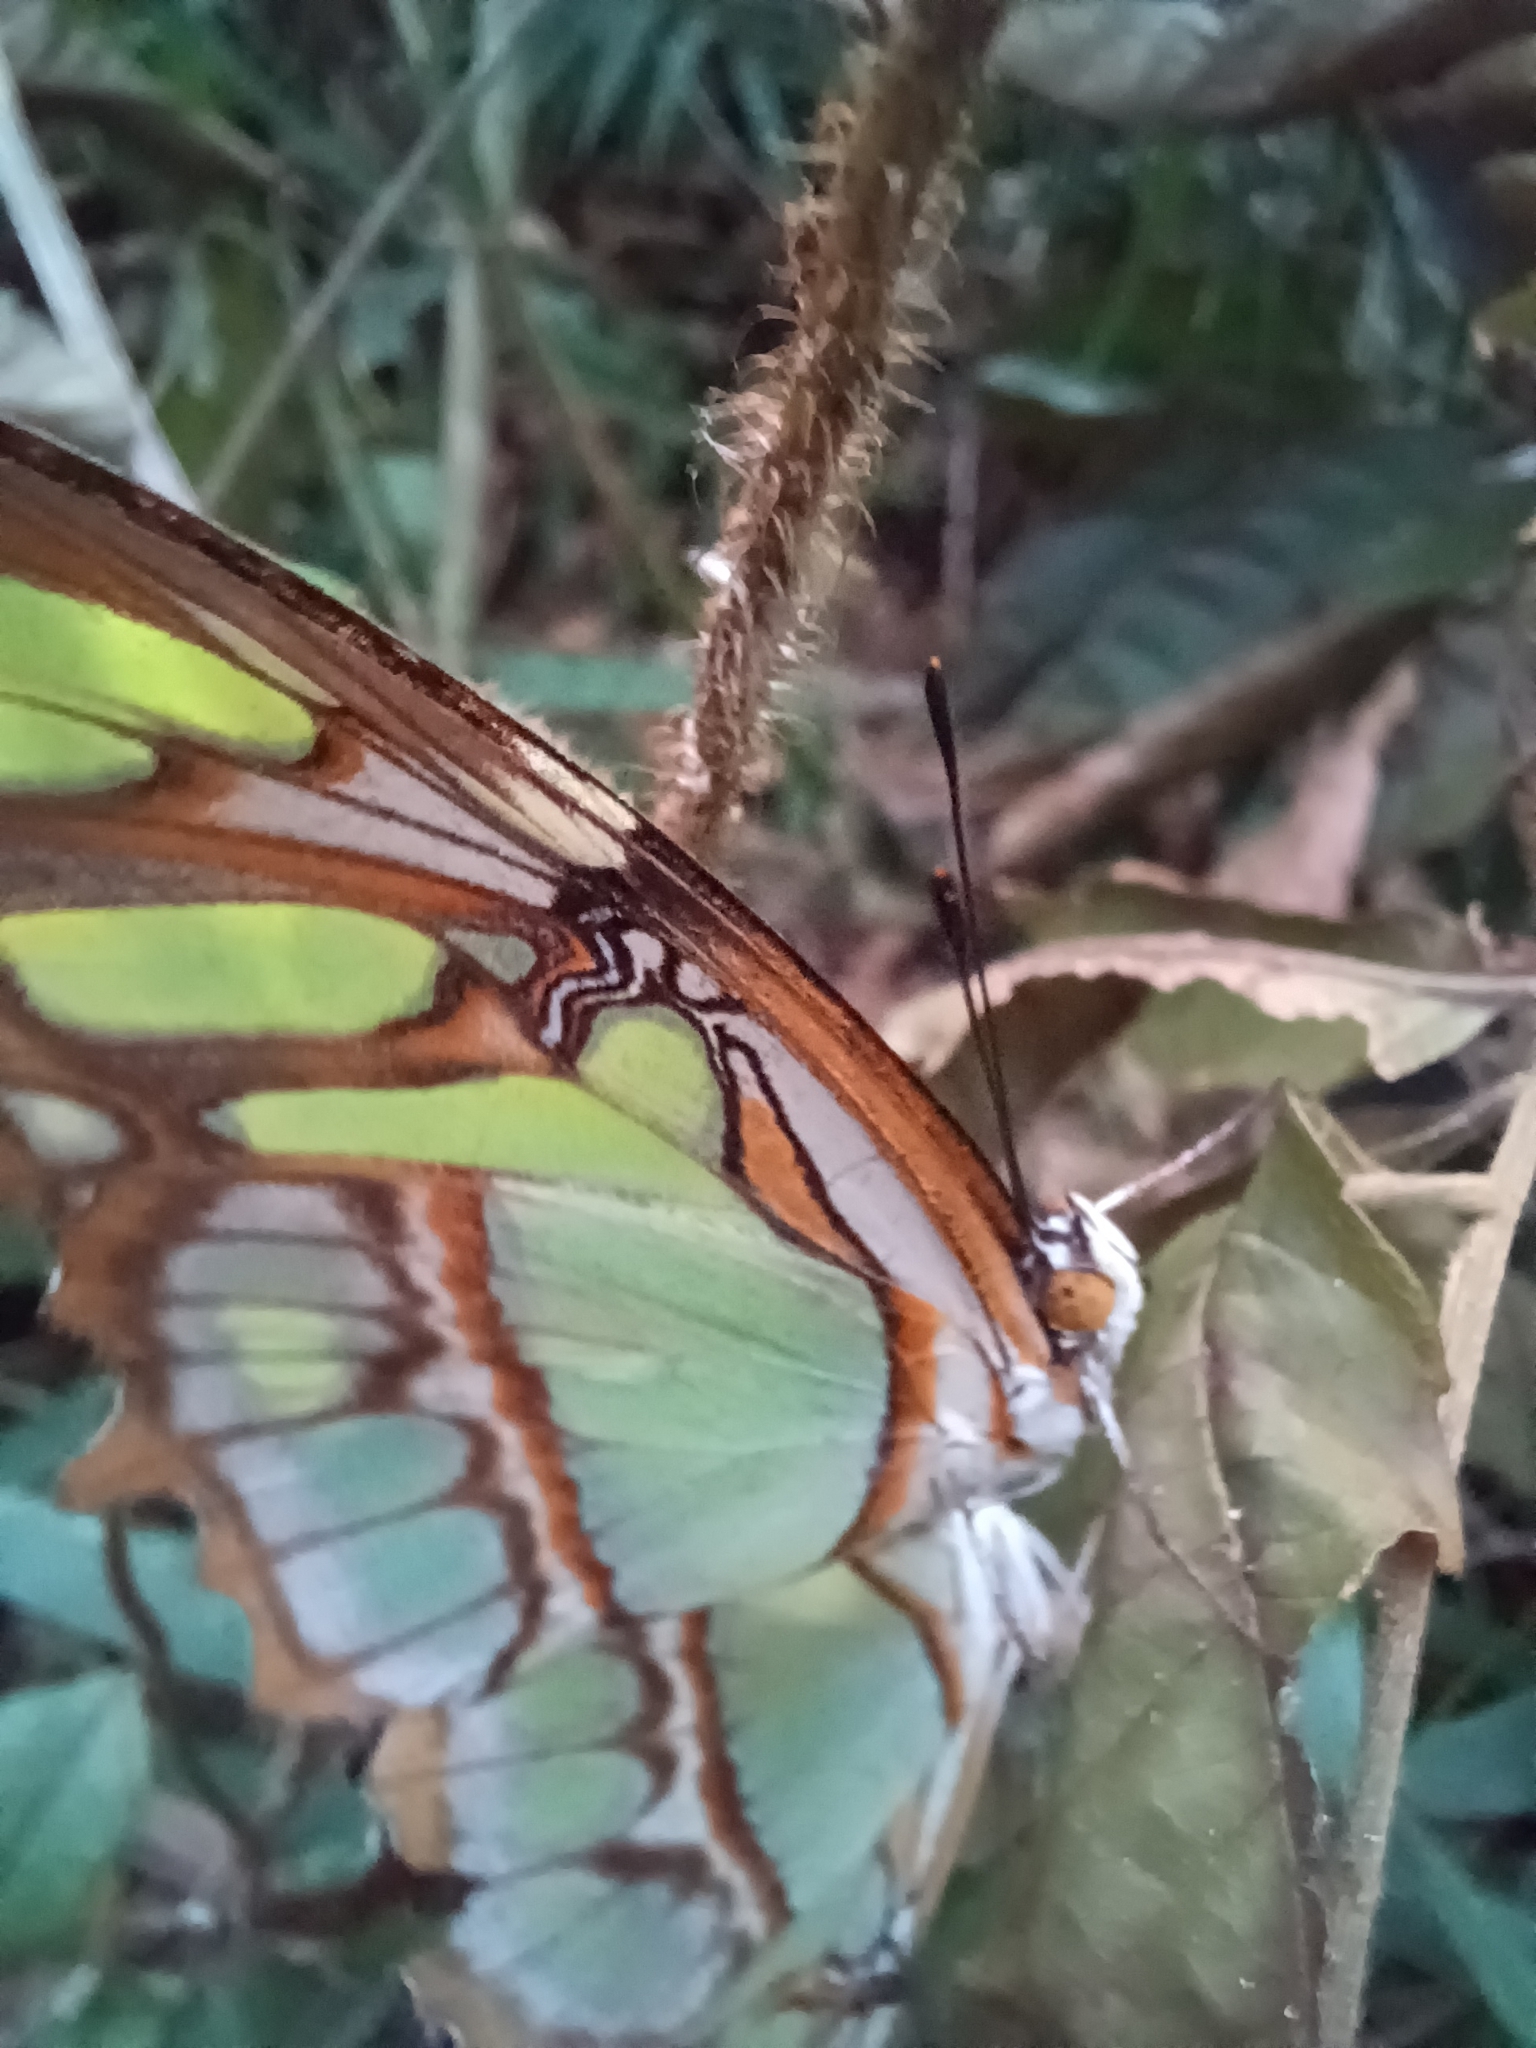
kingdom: Animalia
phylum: Arthropoda
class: Insecta
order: Lepidoptera
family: Nymphalidae
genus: Siproeta
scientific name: Siproeta stelenes
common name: Malachite
